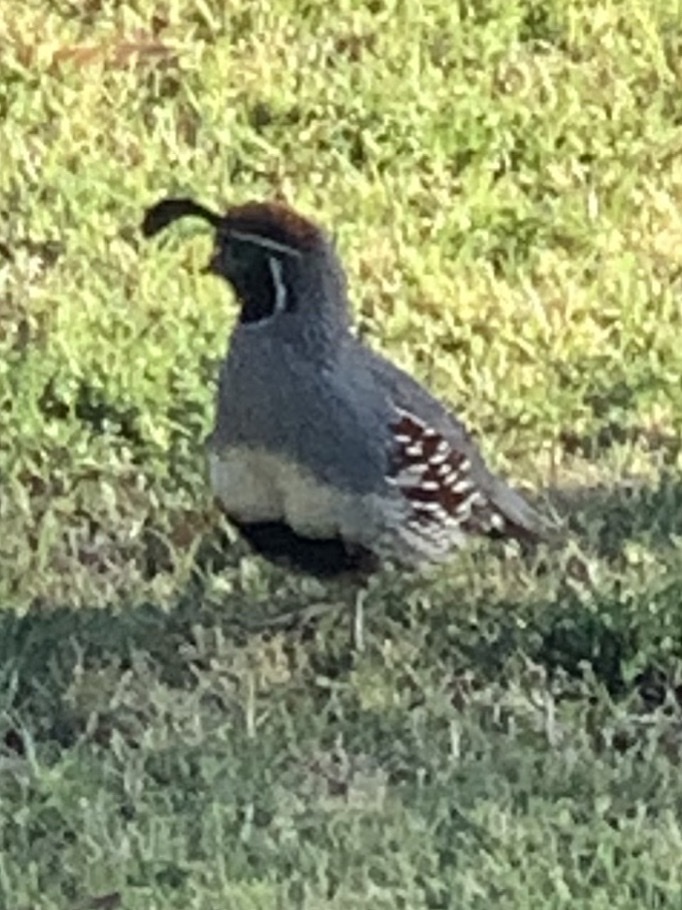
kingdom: Animalia
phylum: Chordata
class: Aves
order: Galliformes
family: Odontophoridae
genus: Callipepla
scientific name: Callipepla gambelii
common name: Gambel's quail
